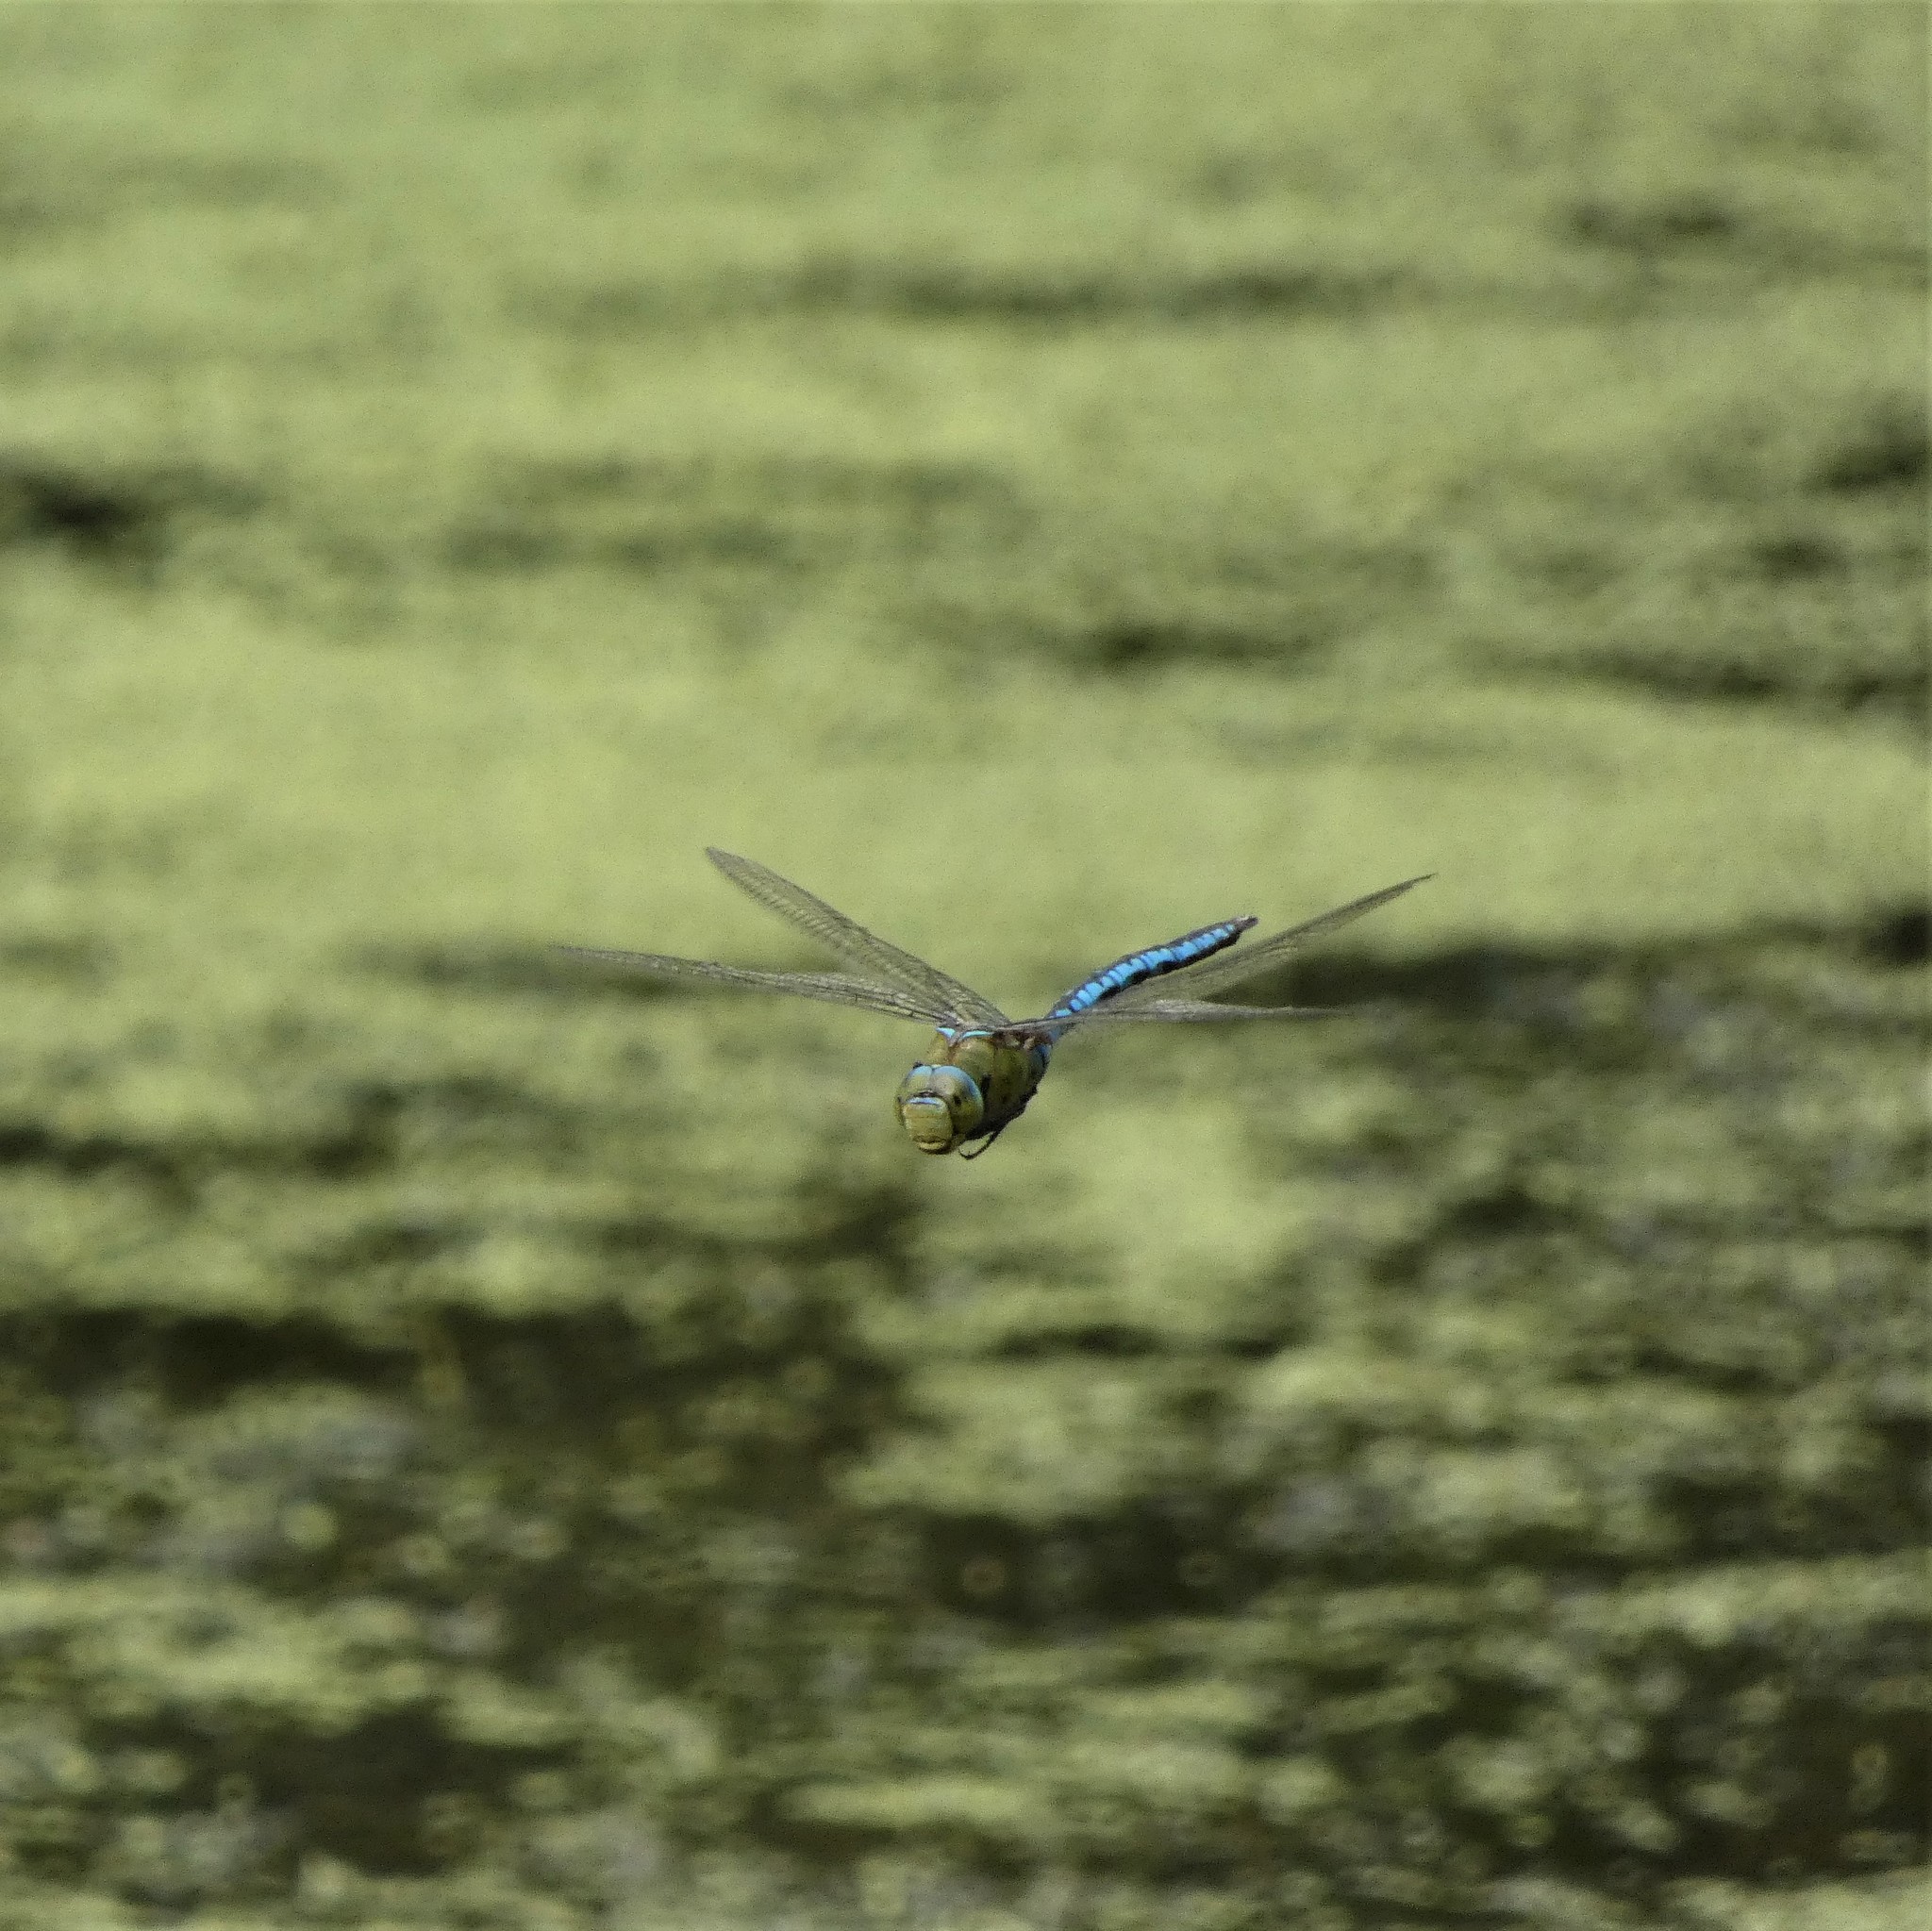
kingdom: Animalia
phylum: Arthropoda
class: Insecta
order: Odonata
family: Aeshnidae
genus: Anax
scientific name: Anax imperator
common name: Emperor dragonfly
